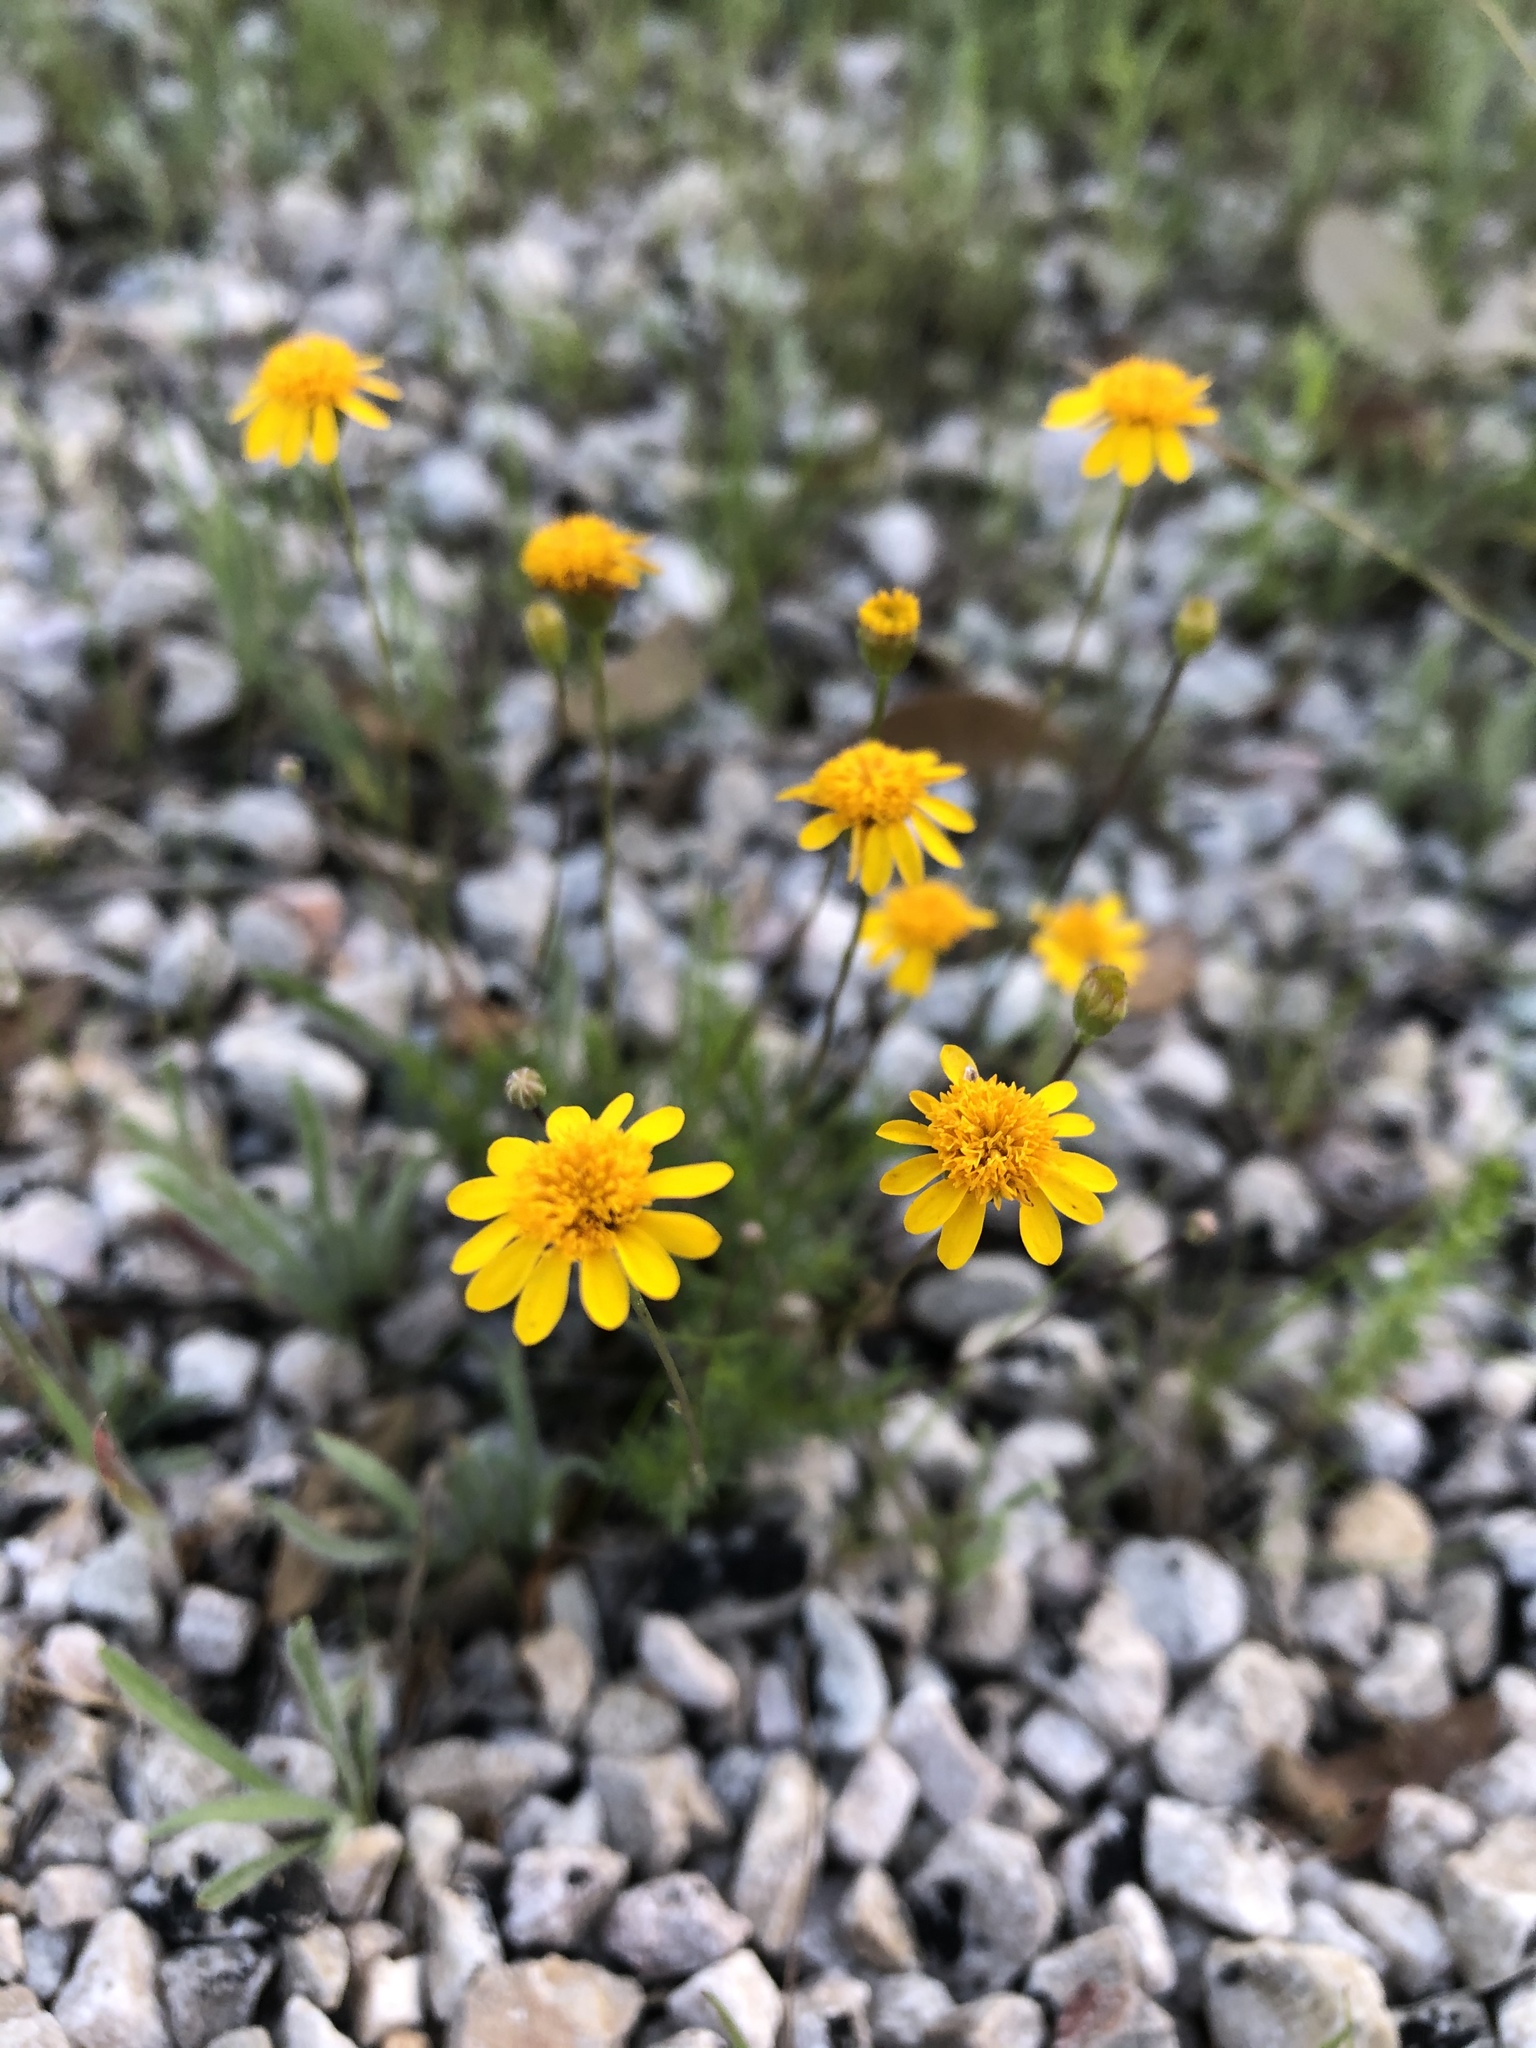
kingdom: Plantae
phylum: Tracheophyta
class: Magnoliopsida
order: Asterales
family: Asteraceae
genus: Thymophylla
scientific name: Thymophylla pentachaeta
